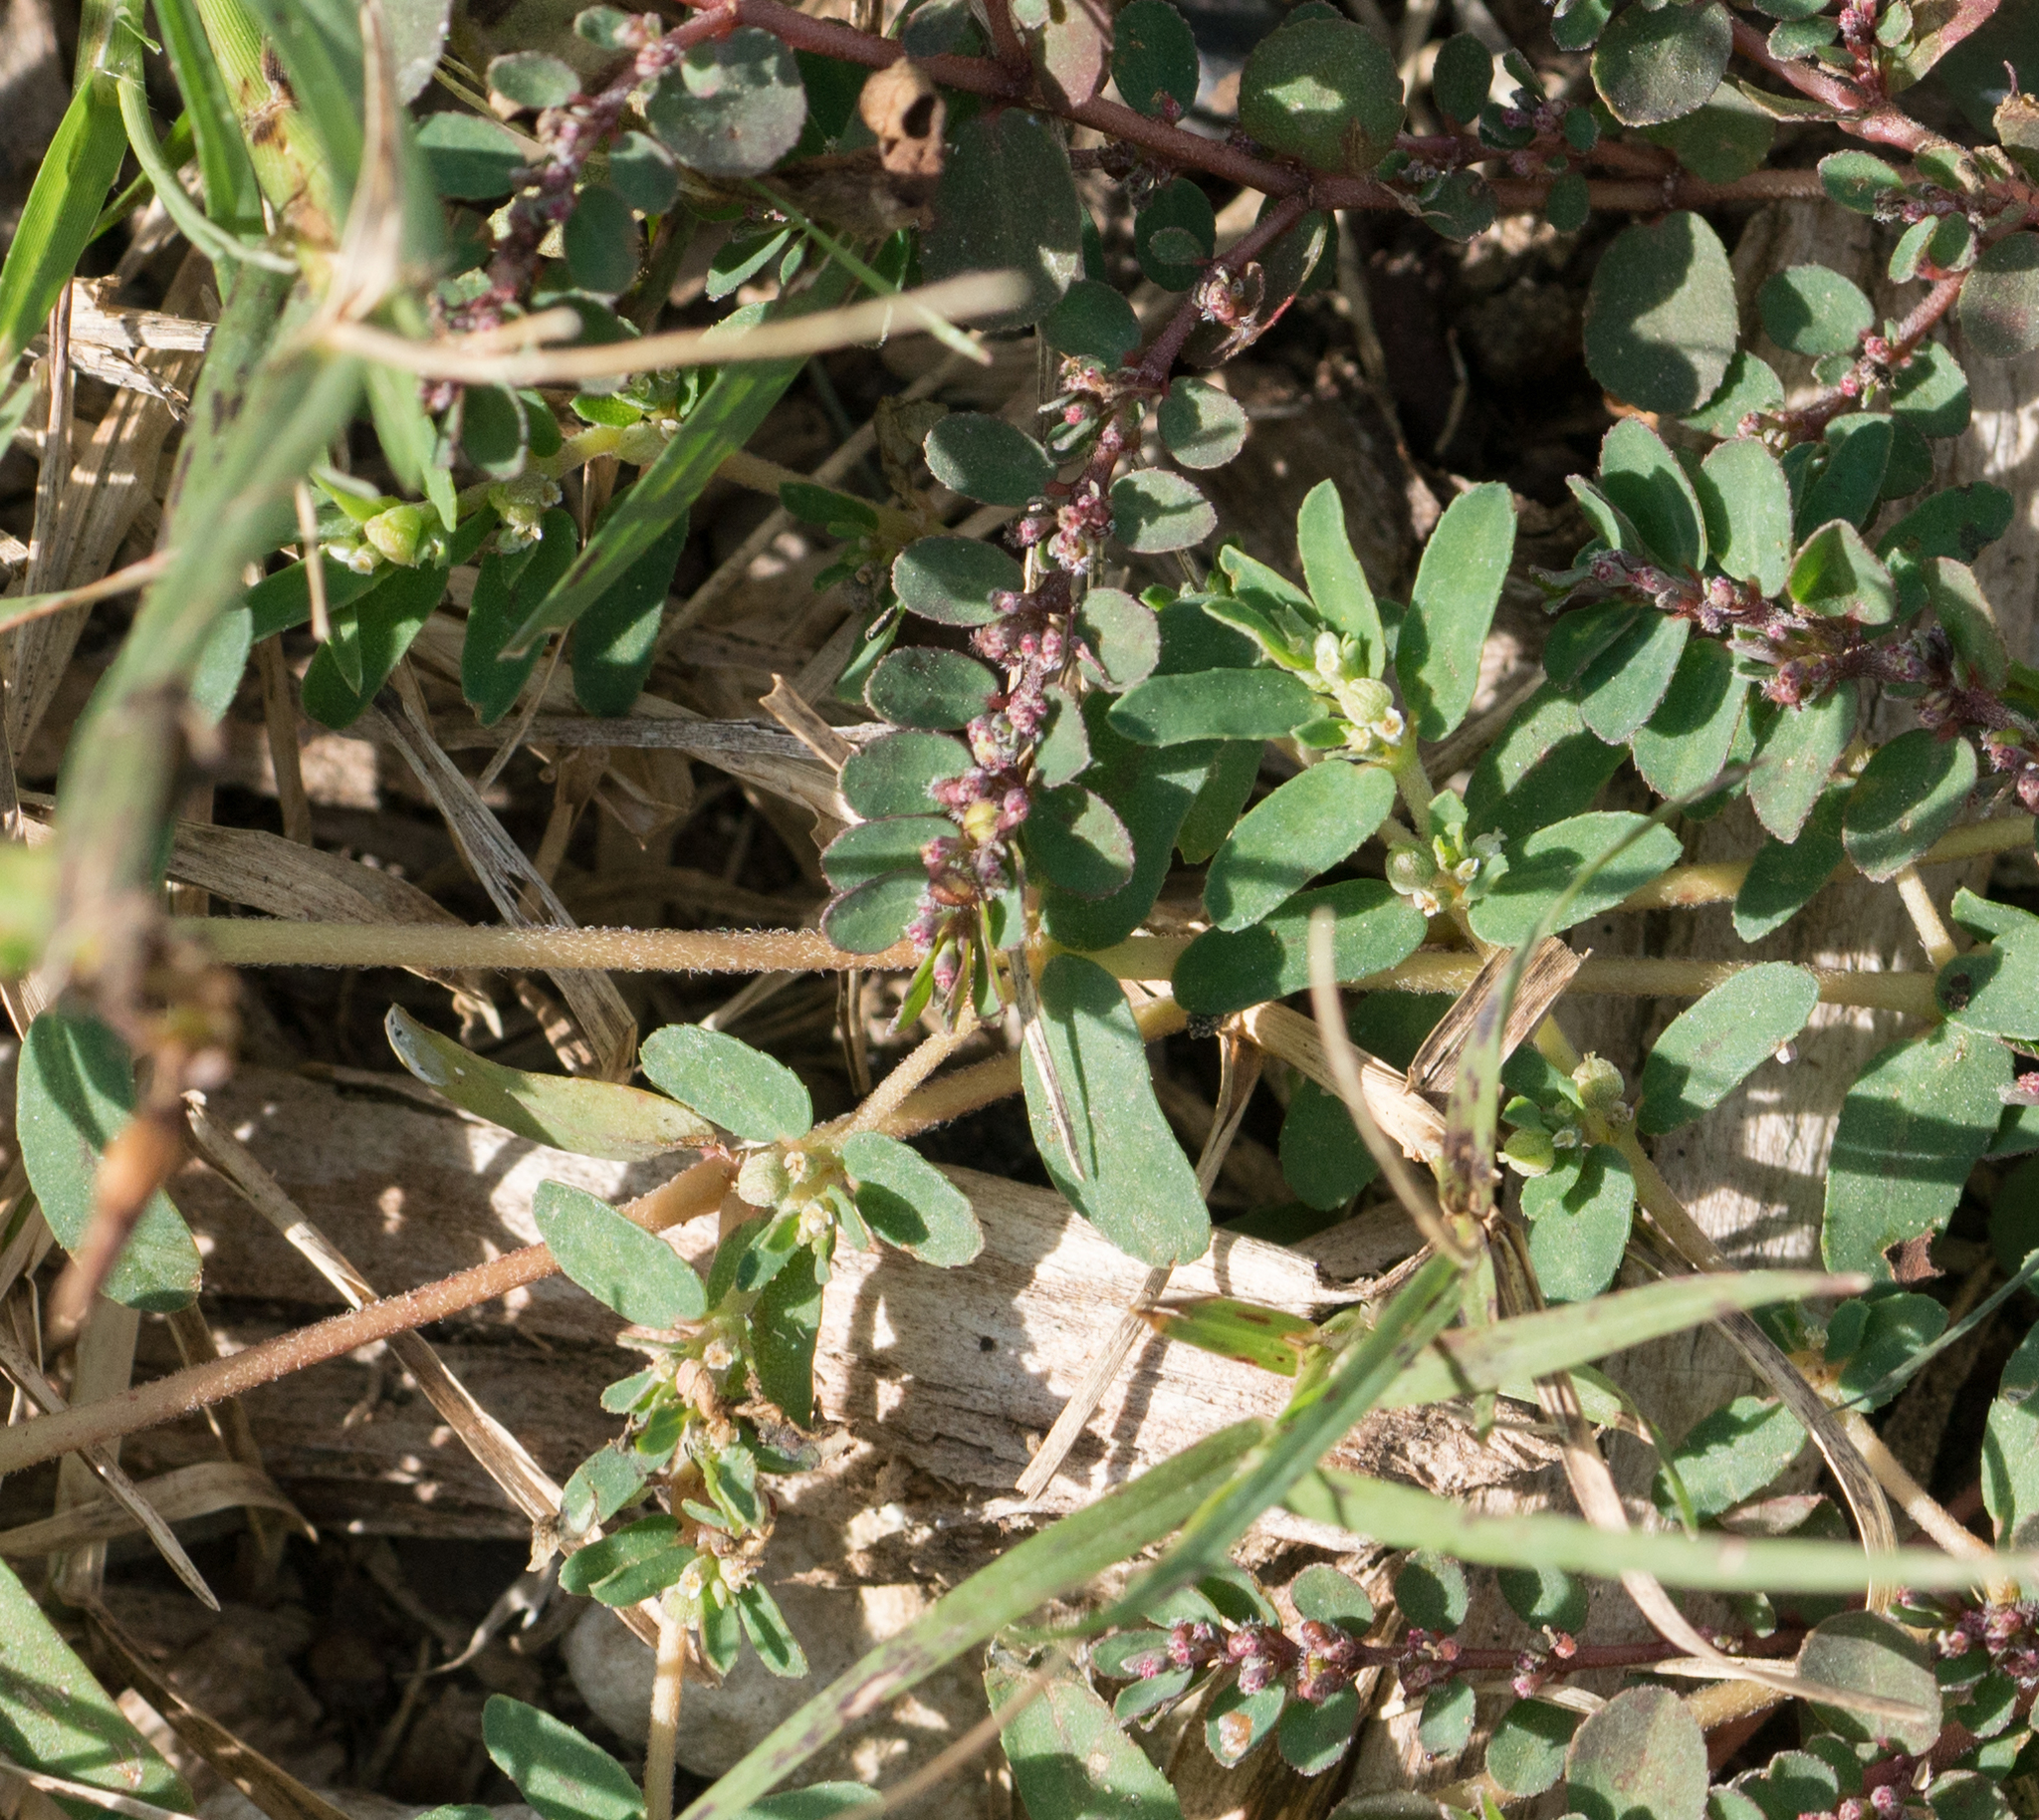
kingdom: Plantae
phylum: Tracheophyta
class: Magnoliopsida
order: Malpighiales
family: Euphorbiaceae
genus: Euphorbia
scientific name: Euphorbia prostrata
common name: Prostrate sandmat
